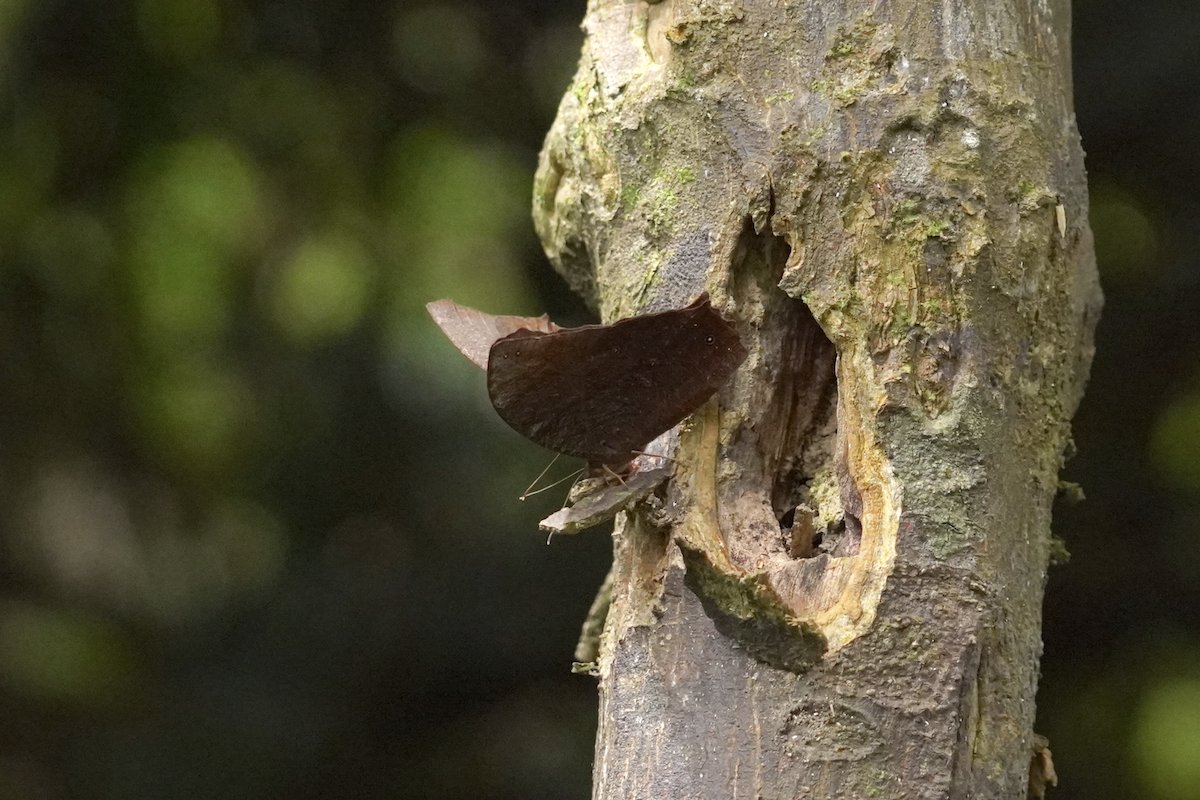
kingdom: Animalia
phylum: Arthropoda
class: Insecta
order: Lepidoptera
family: Nymphalidae
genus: Melanitis
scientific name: Melanitis phedima
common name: Dark evening brown
